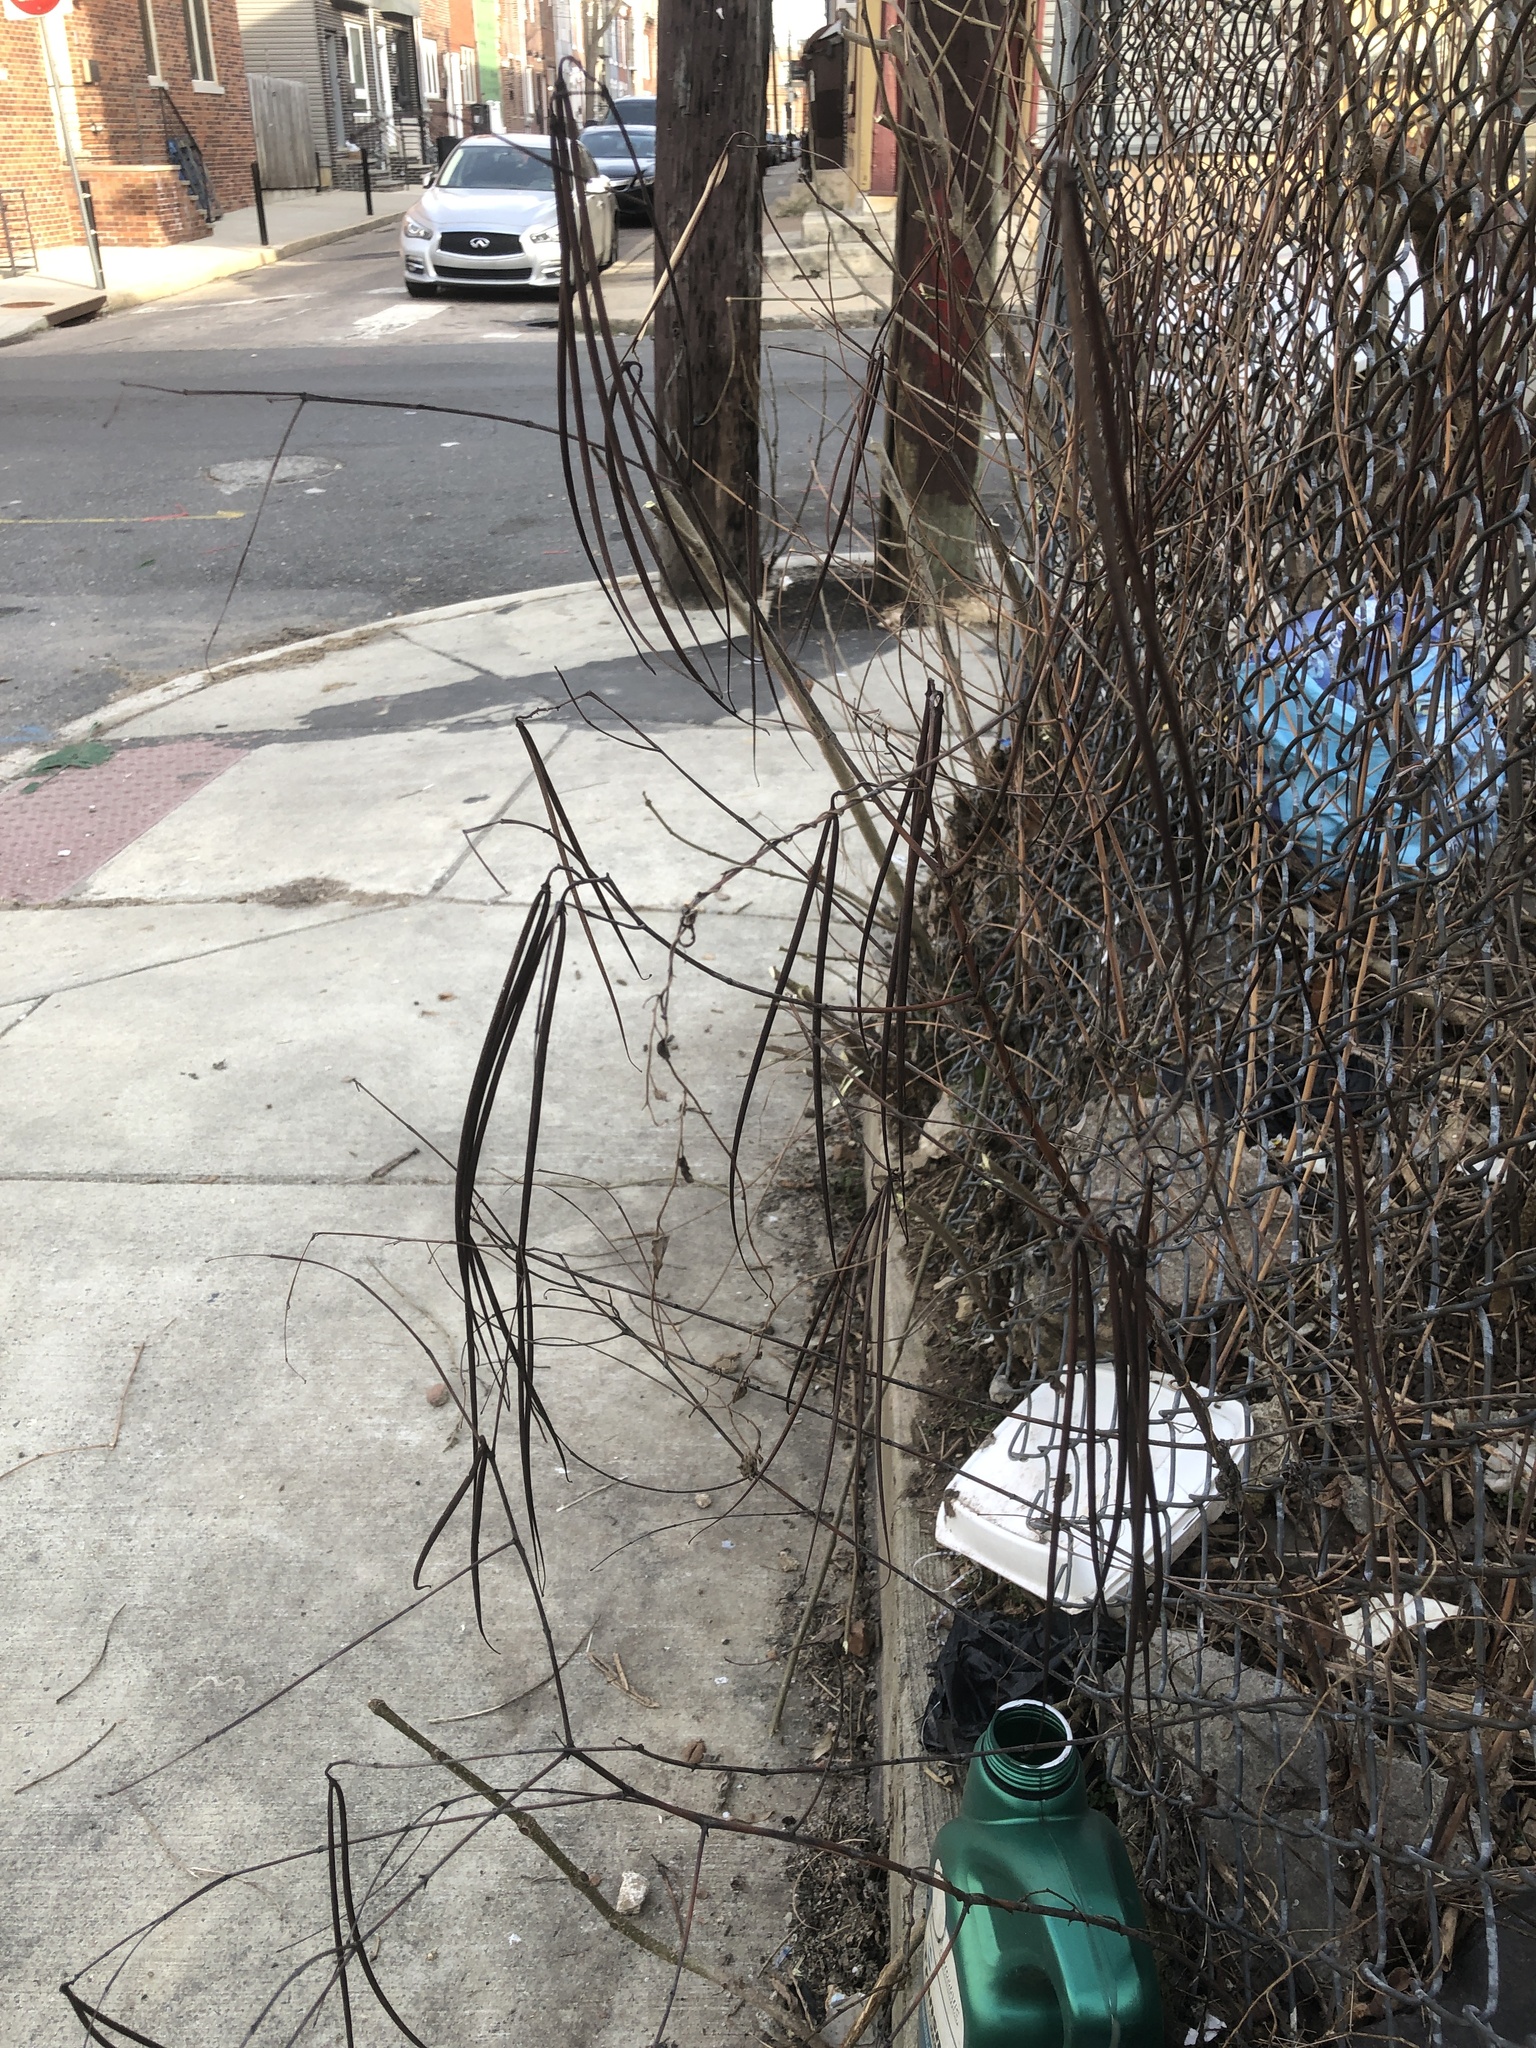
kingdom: Plantae
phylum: Tracheophyta
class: Magnoliopsida
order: Gentianales
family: Apocynaceae
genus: Apocynum
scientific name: Apocynum cannabinum
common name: Hemp dogbane
